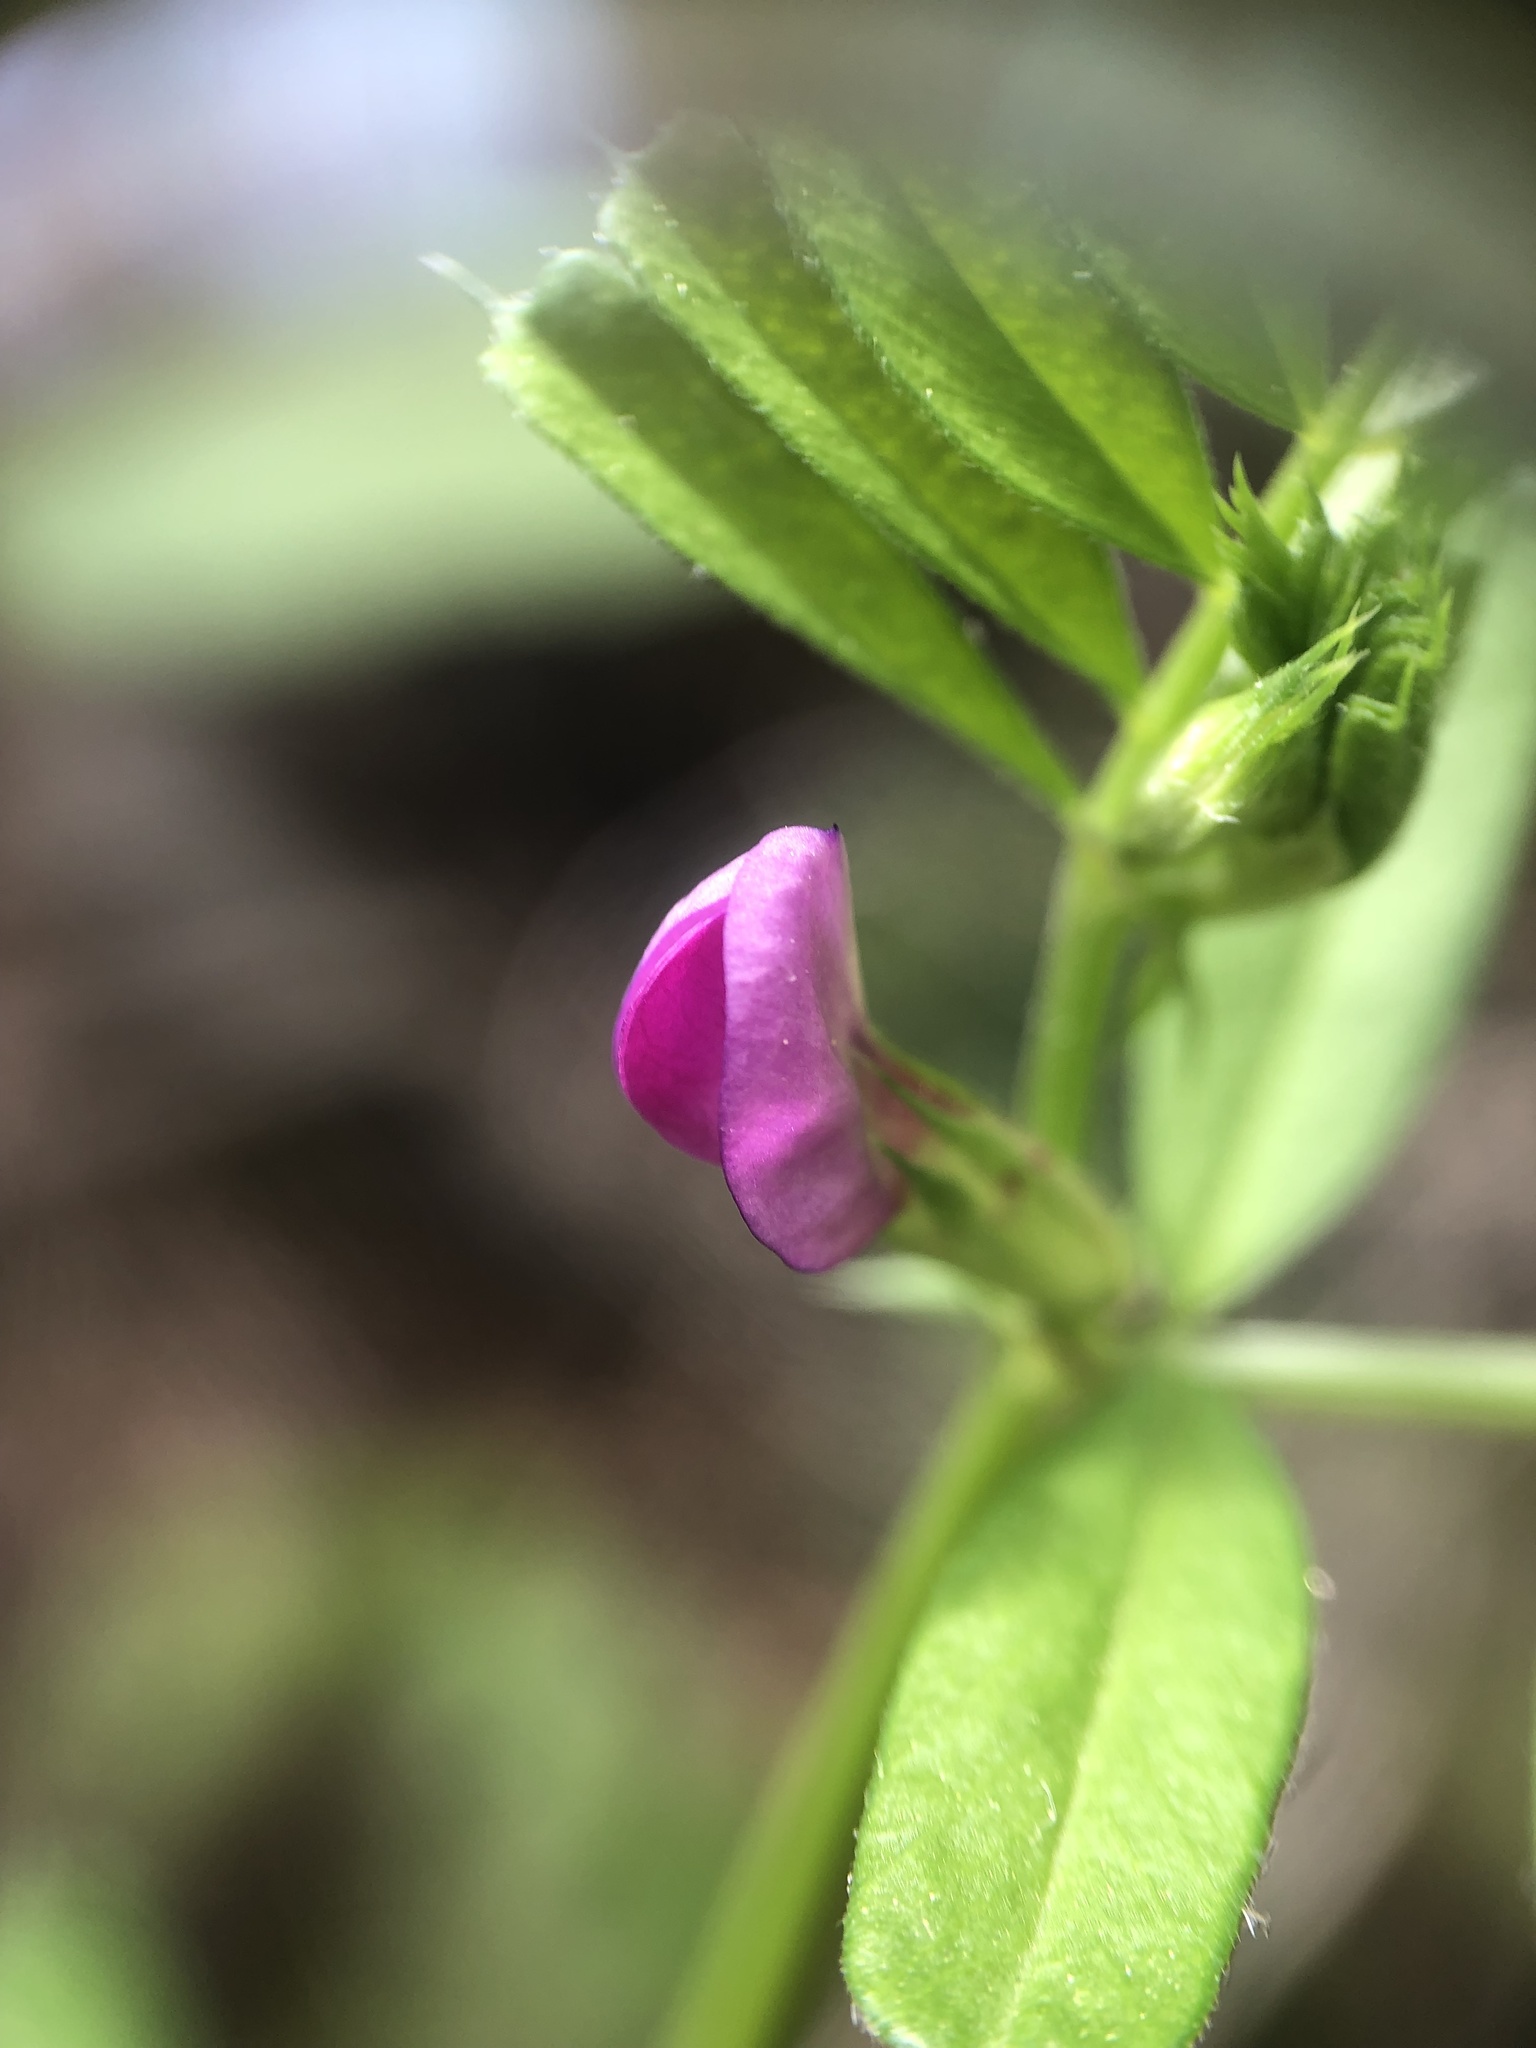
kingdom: Plantae
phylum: Tracheophyta
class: Magnoliopsida
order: Fabales
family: Fabaceae
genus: Vicia
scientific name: Vicia sativa
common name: Garden vetch
